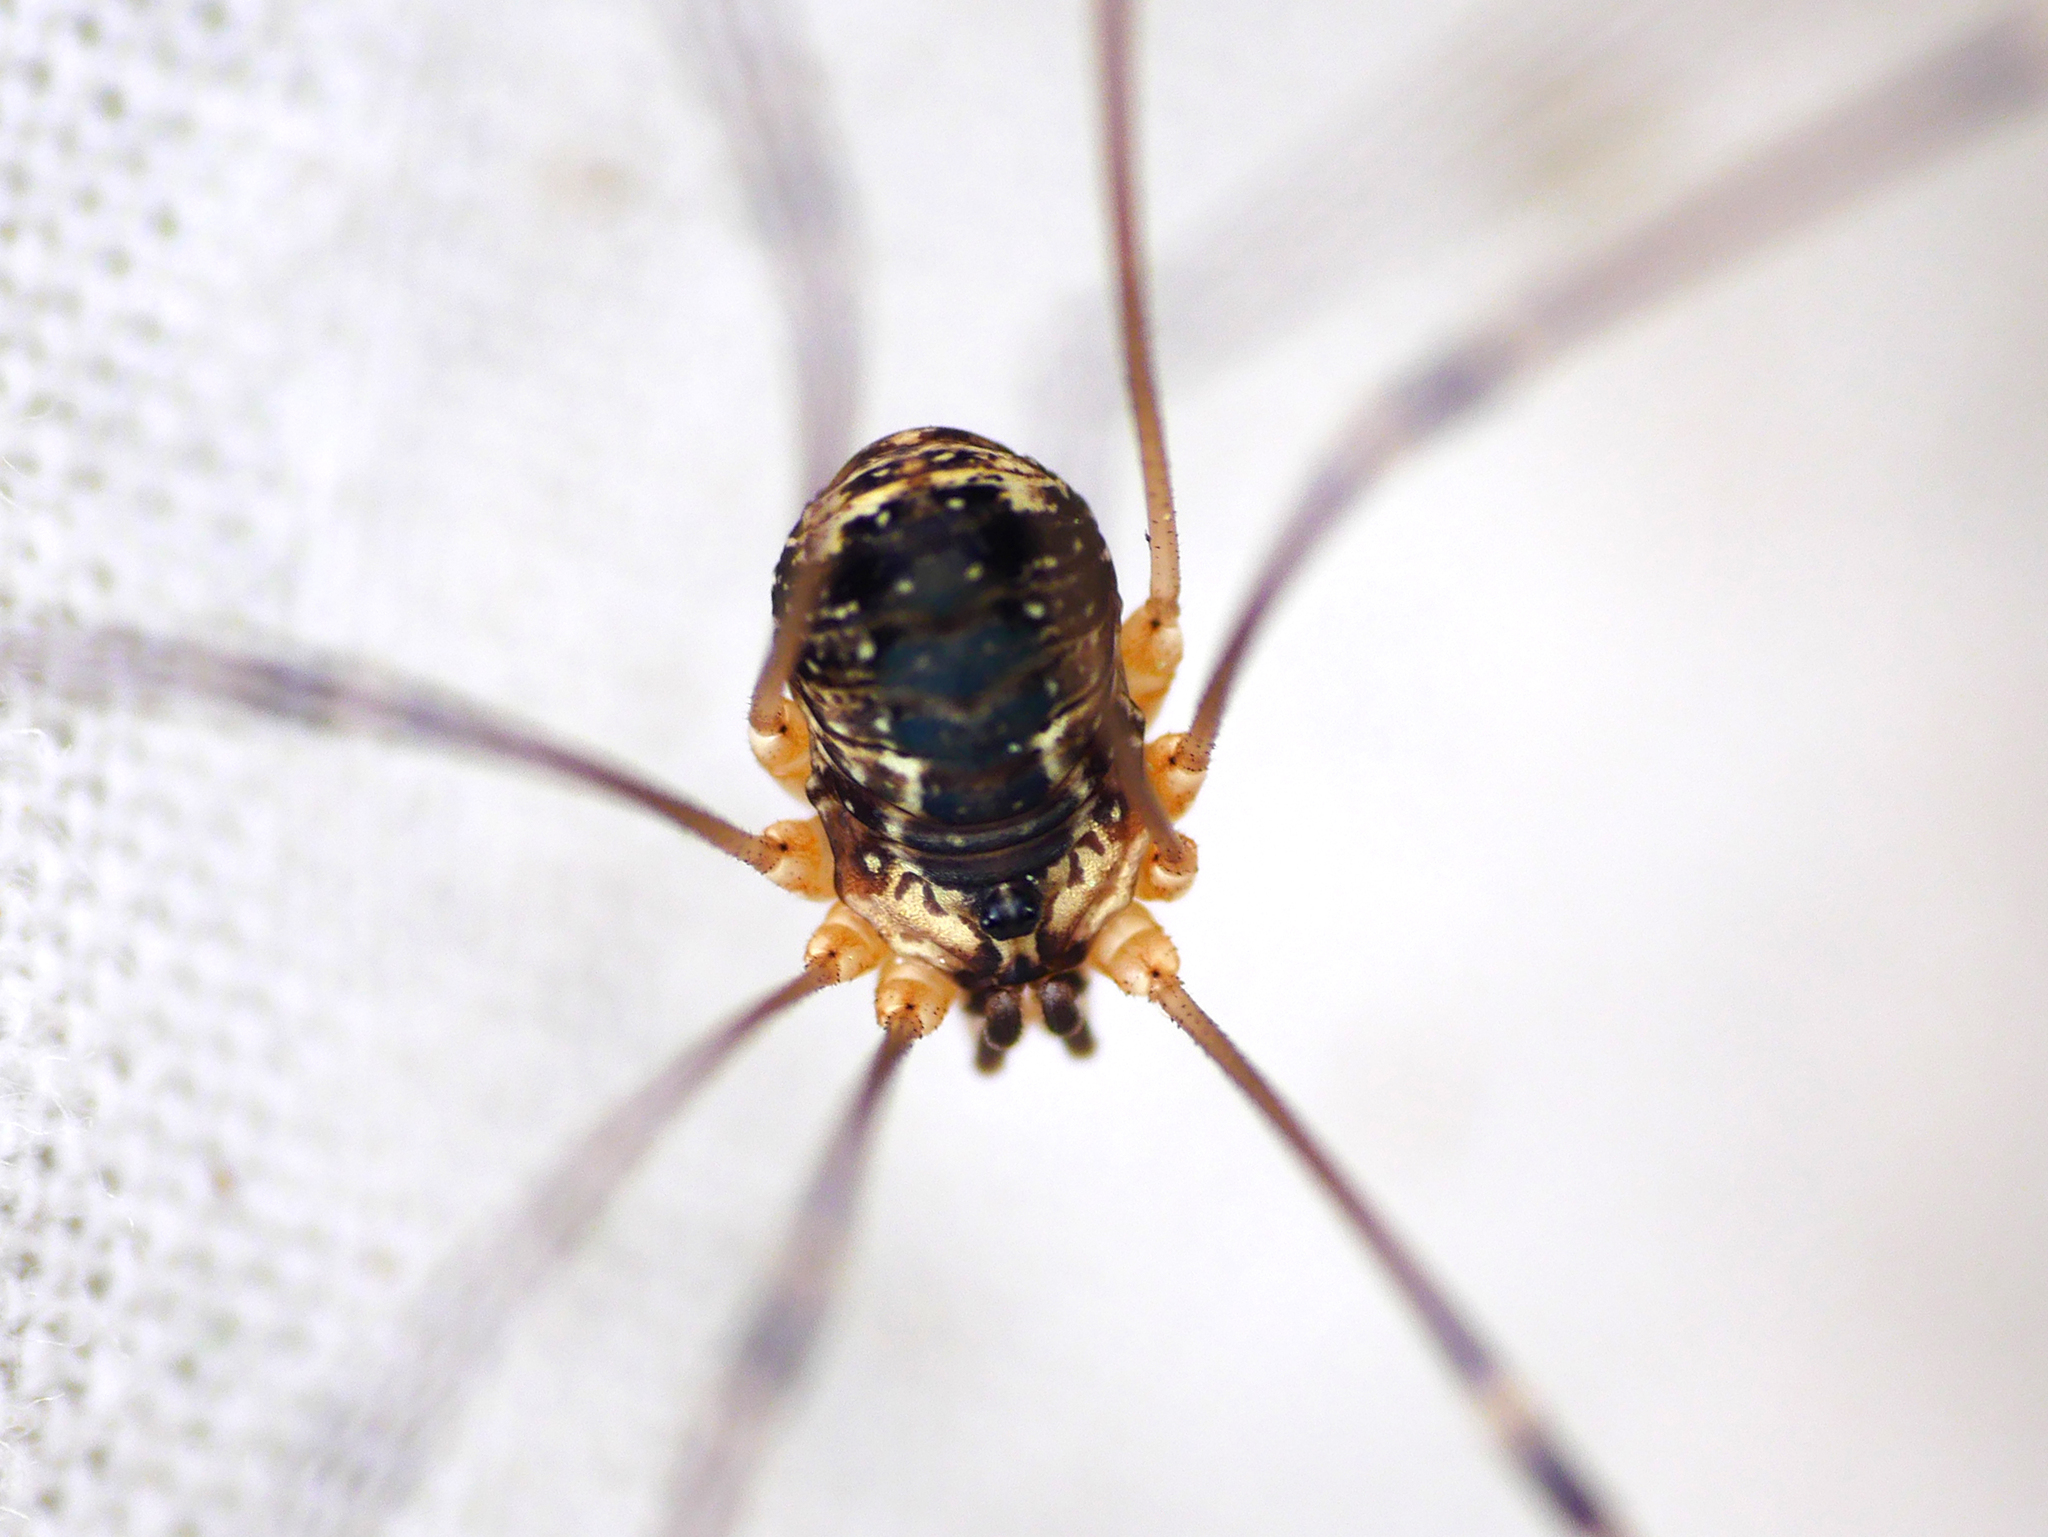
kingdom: Animalia
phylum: Arthropoda
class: Arachnida
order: Opiliones
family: Sclerosomatidae
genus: Leiobunum
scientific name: Leiobunum gracile
